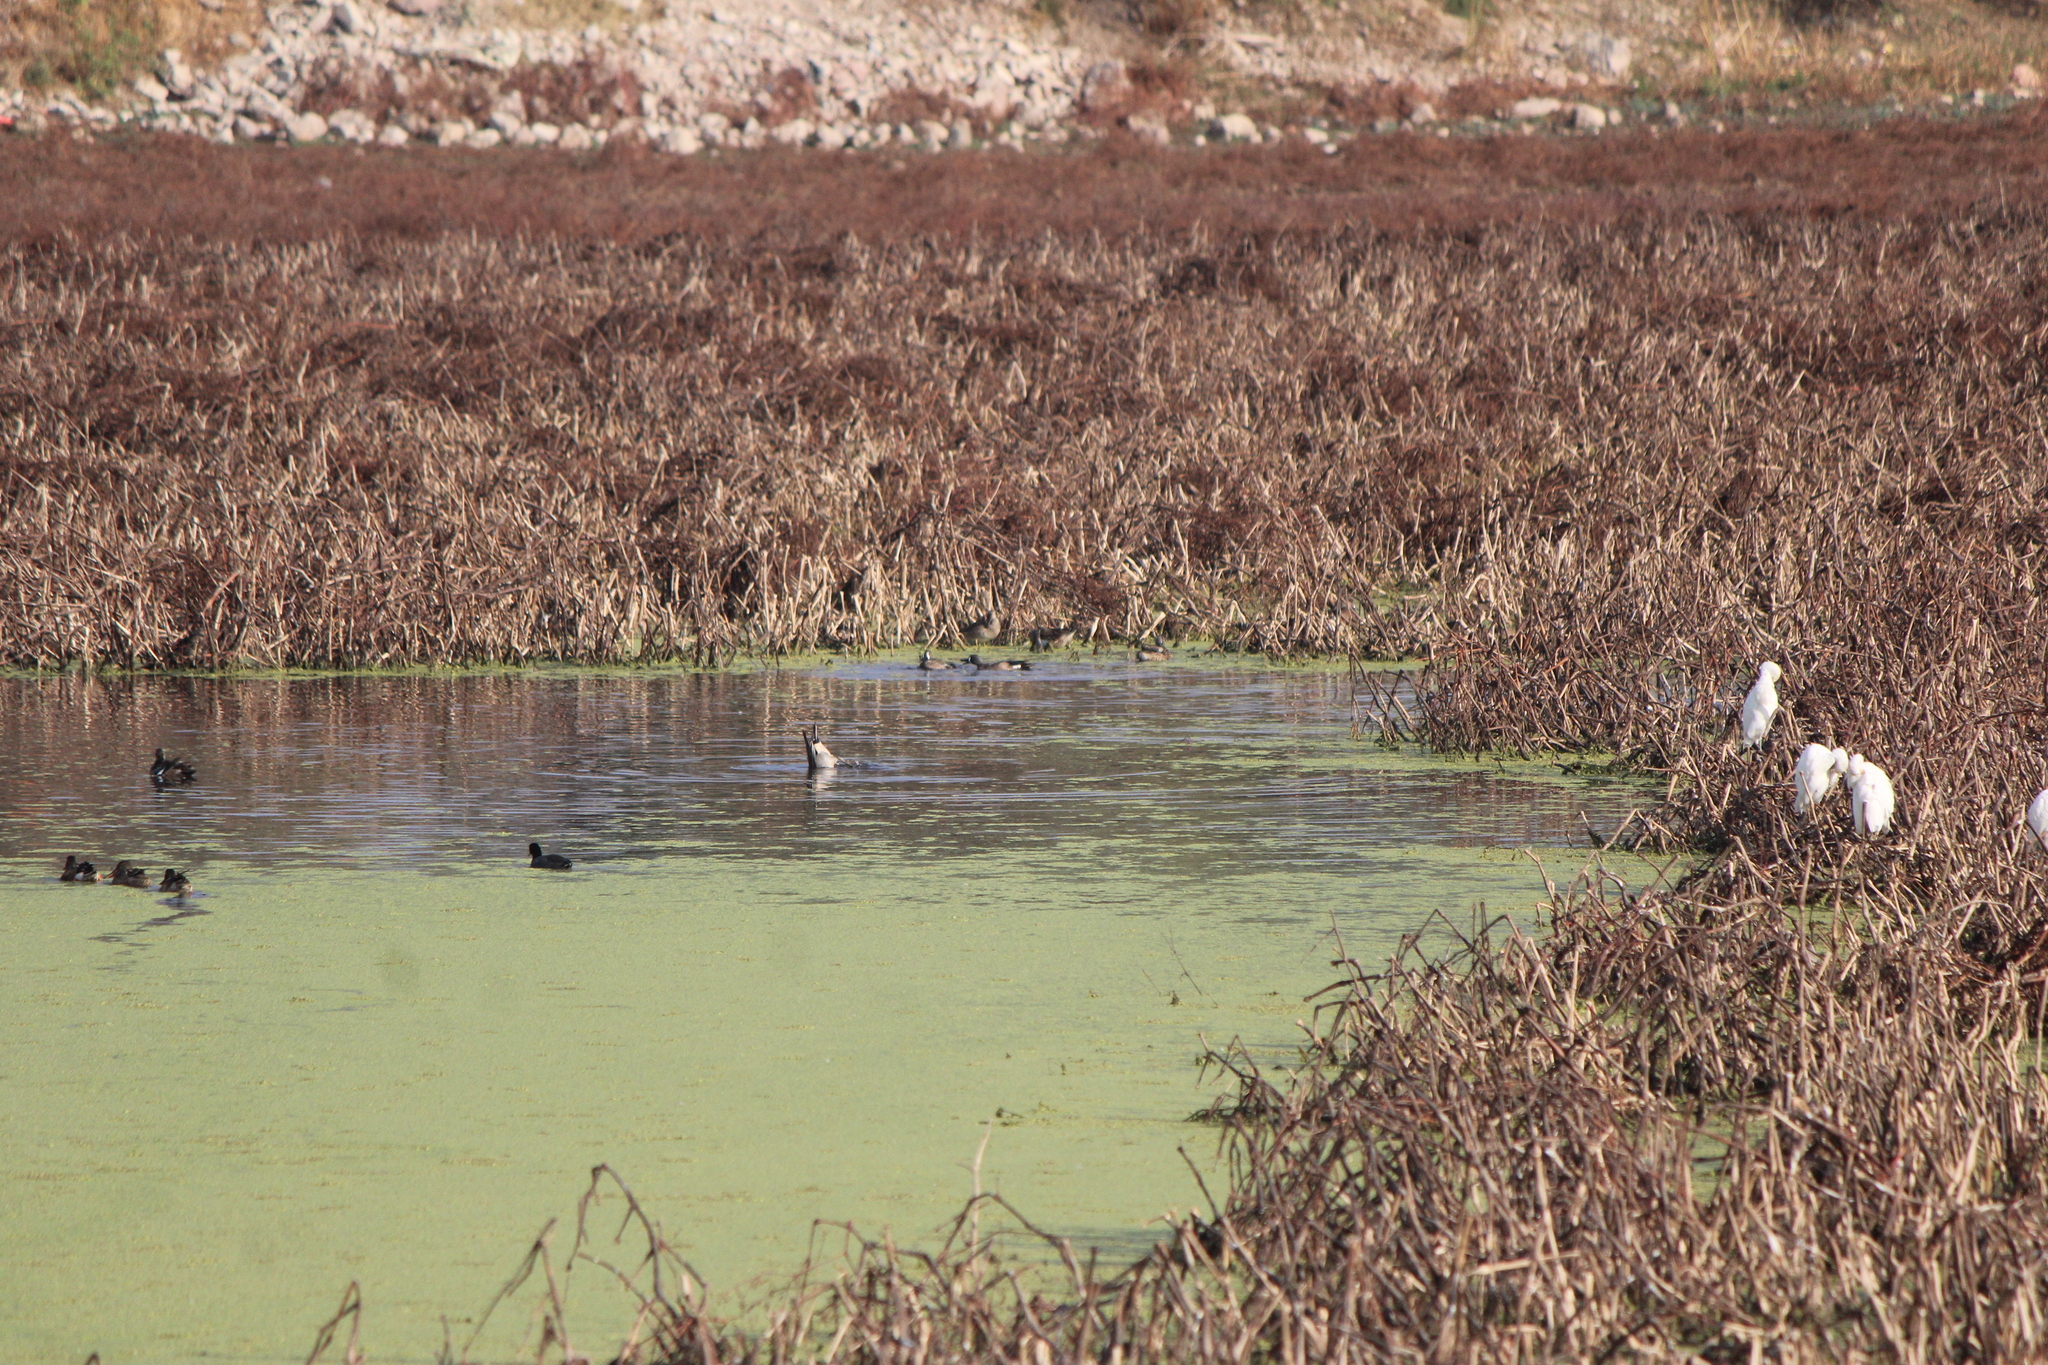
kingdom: Animalia
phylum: Chordata
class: Aves
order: Anseriformes
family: Anatidae
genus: Spatula
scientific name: Spatula discors
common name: Blue-winged teal
